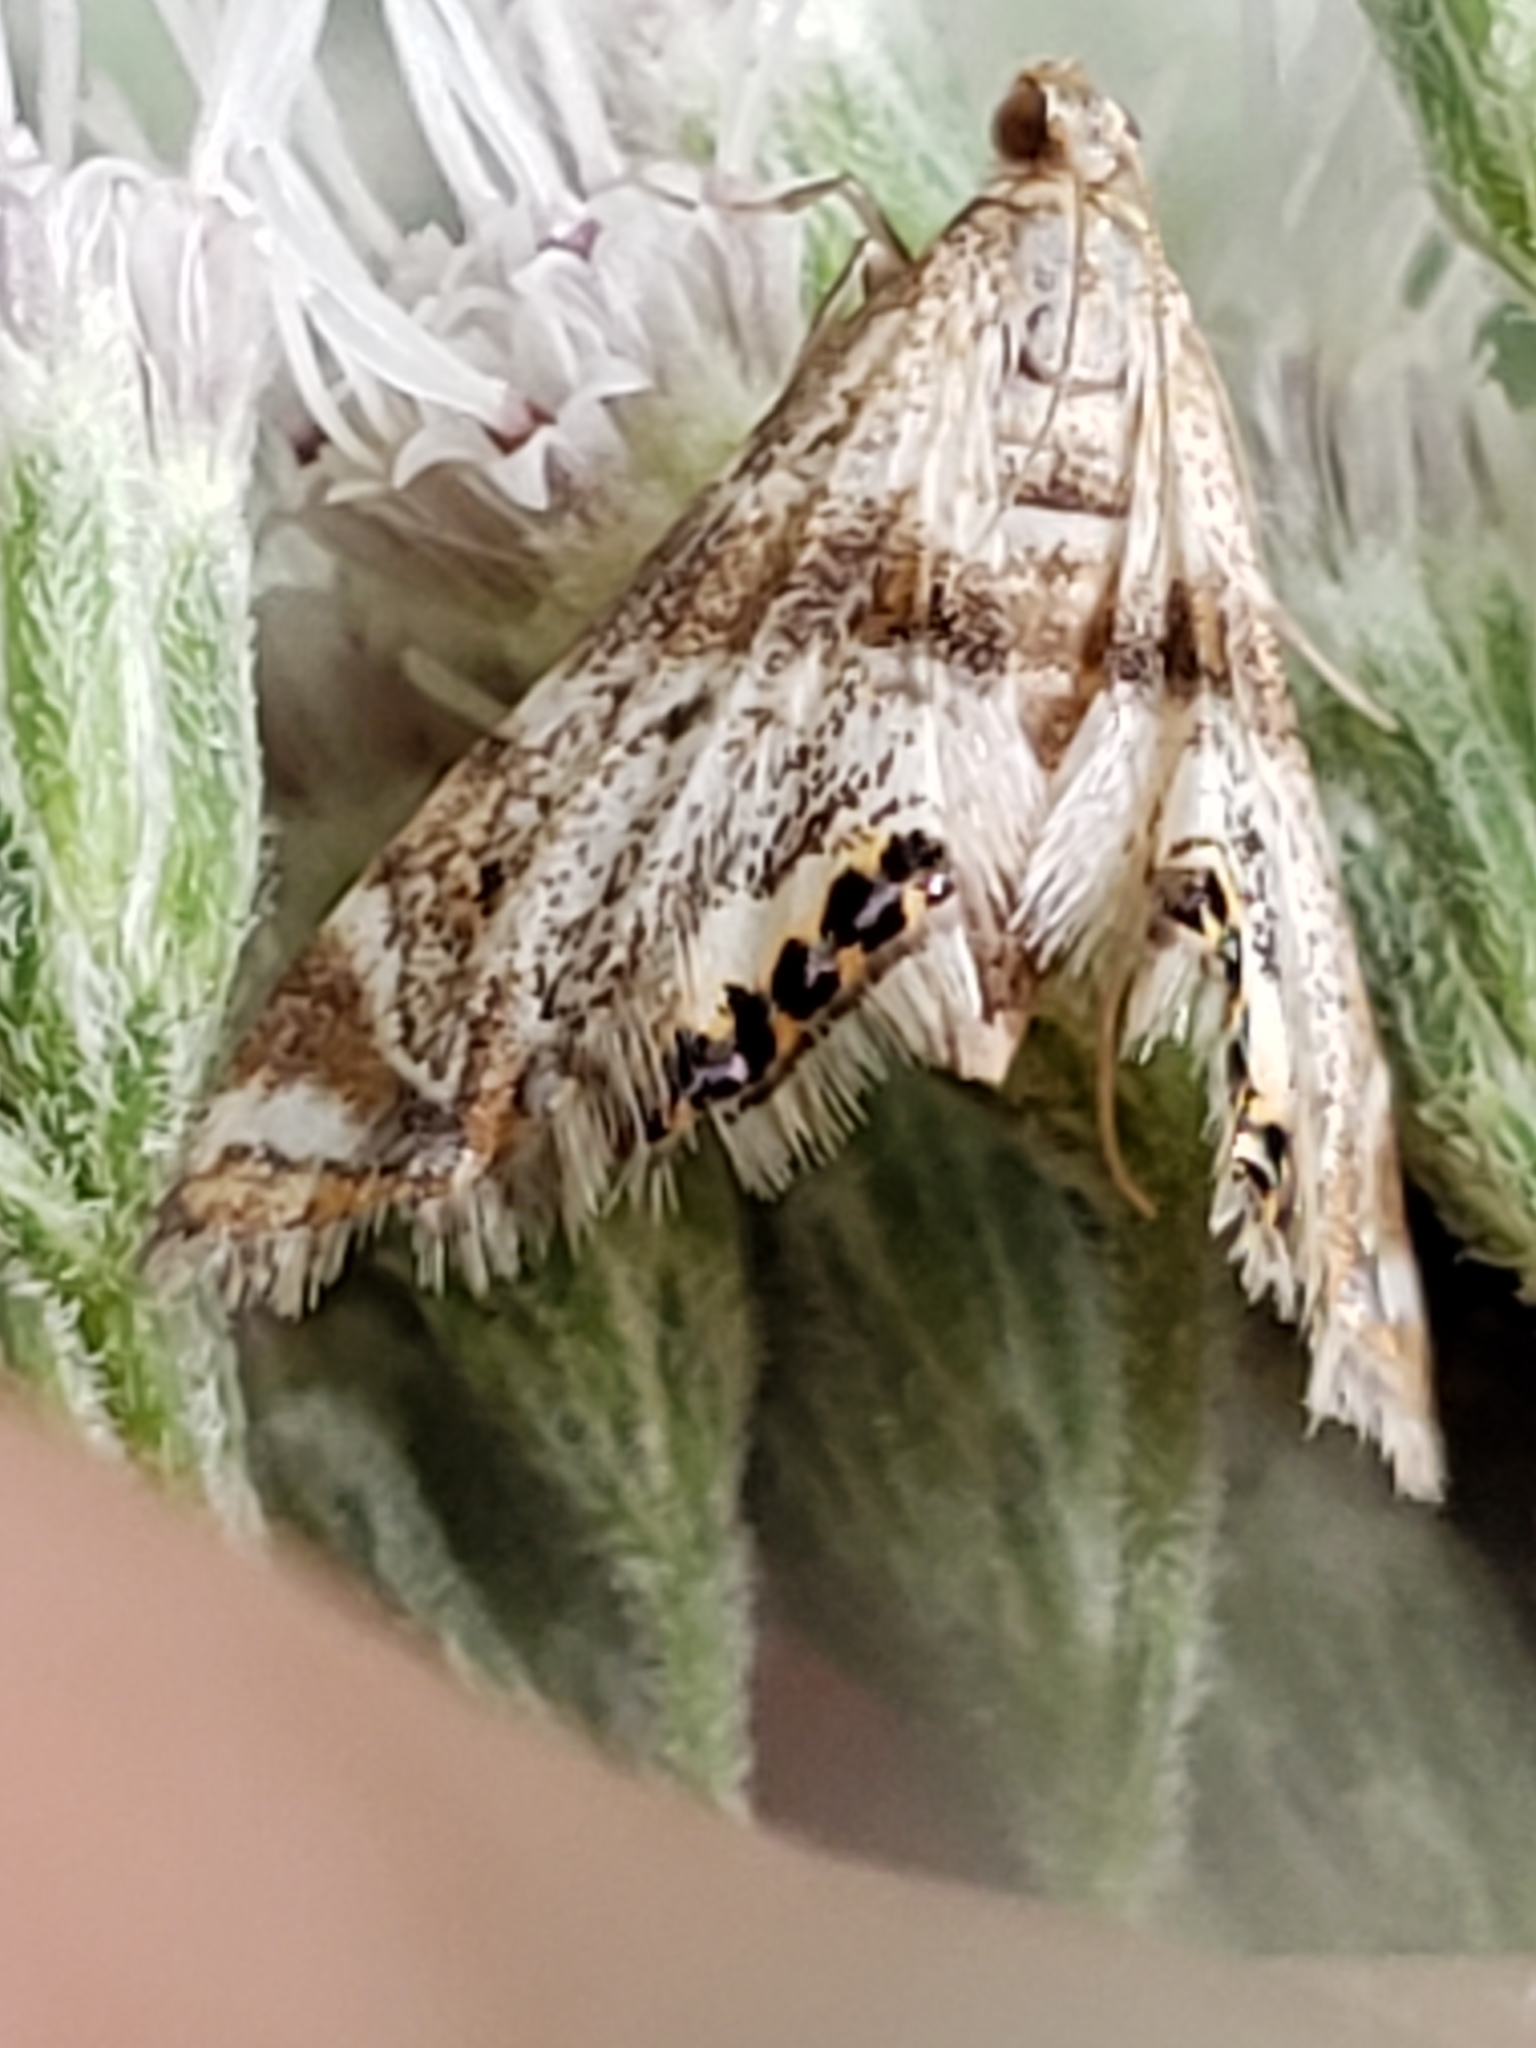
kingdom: Animalia
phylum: Arthropoda
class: Insecta
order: Lepidoptera
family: Crambidae
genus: Petrophila
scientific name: Petrophila fulicalis
